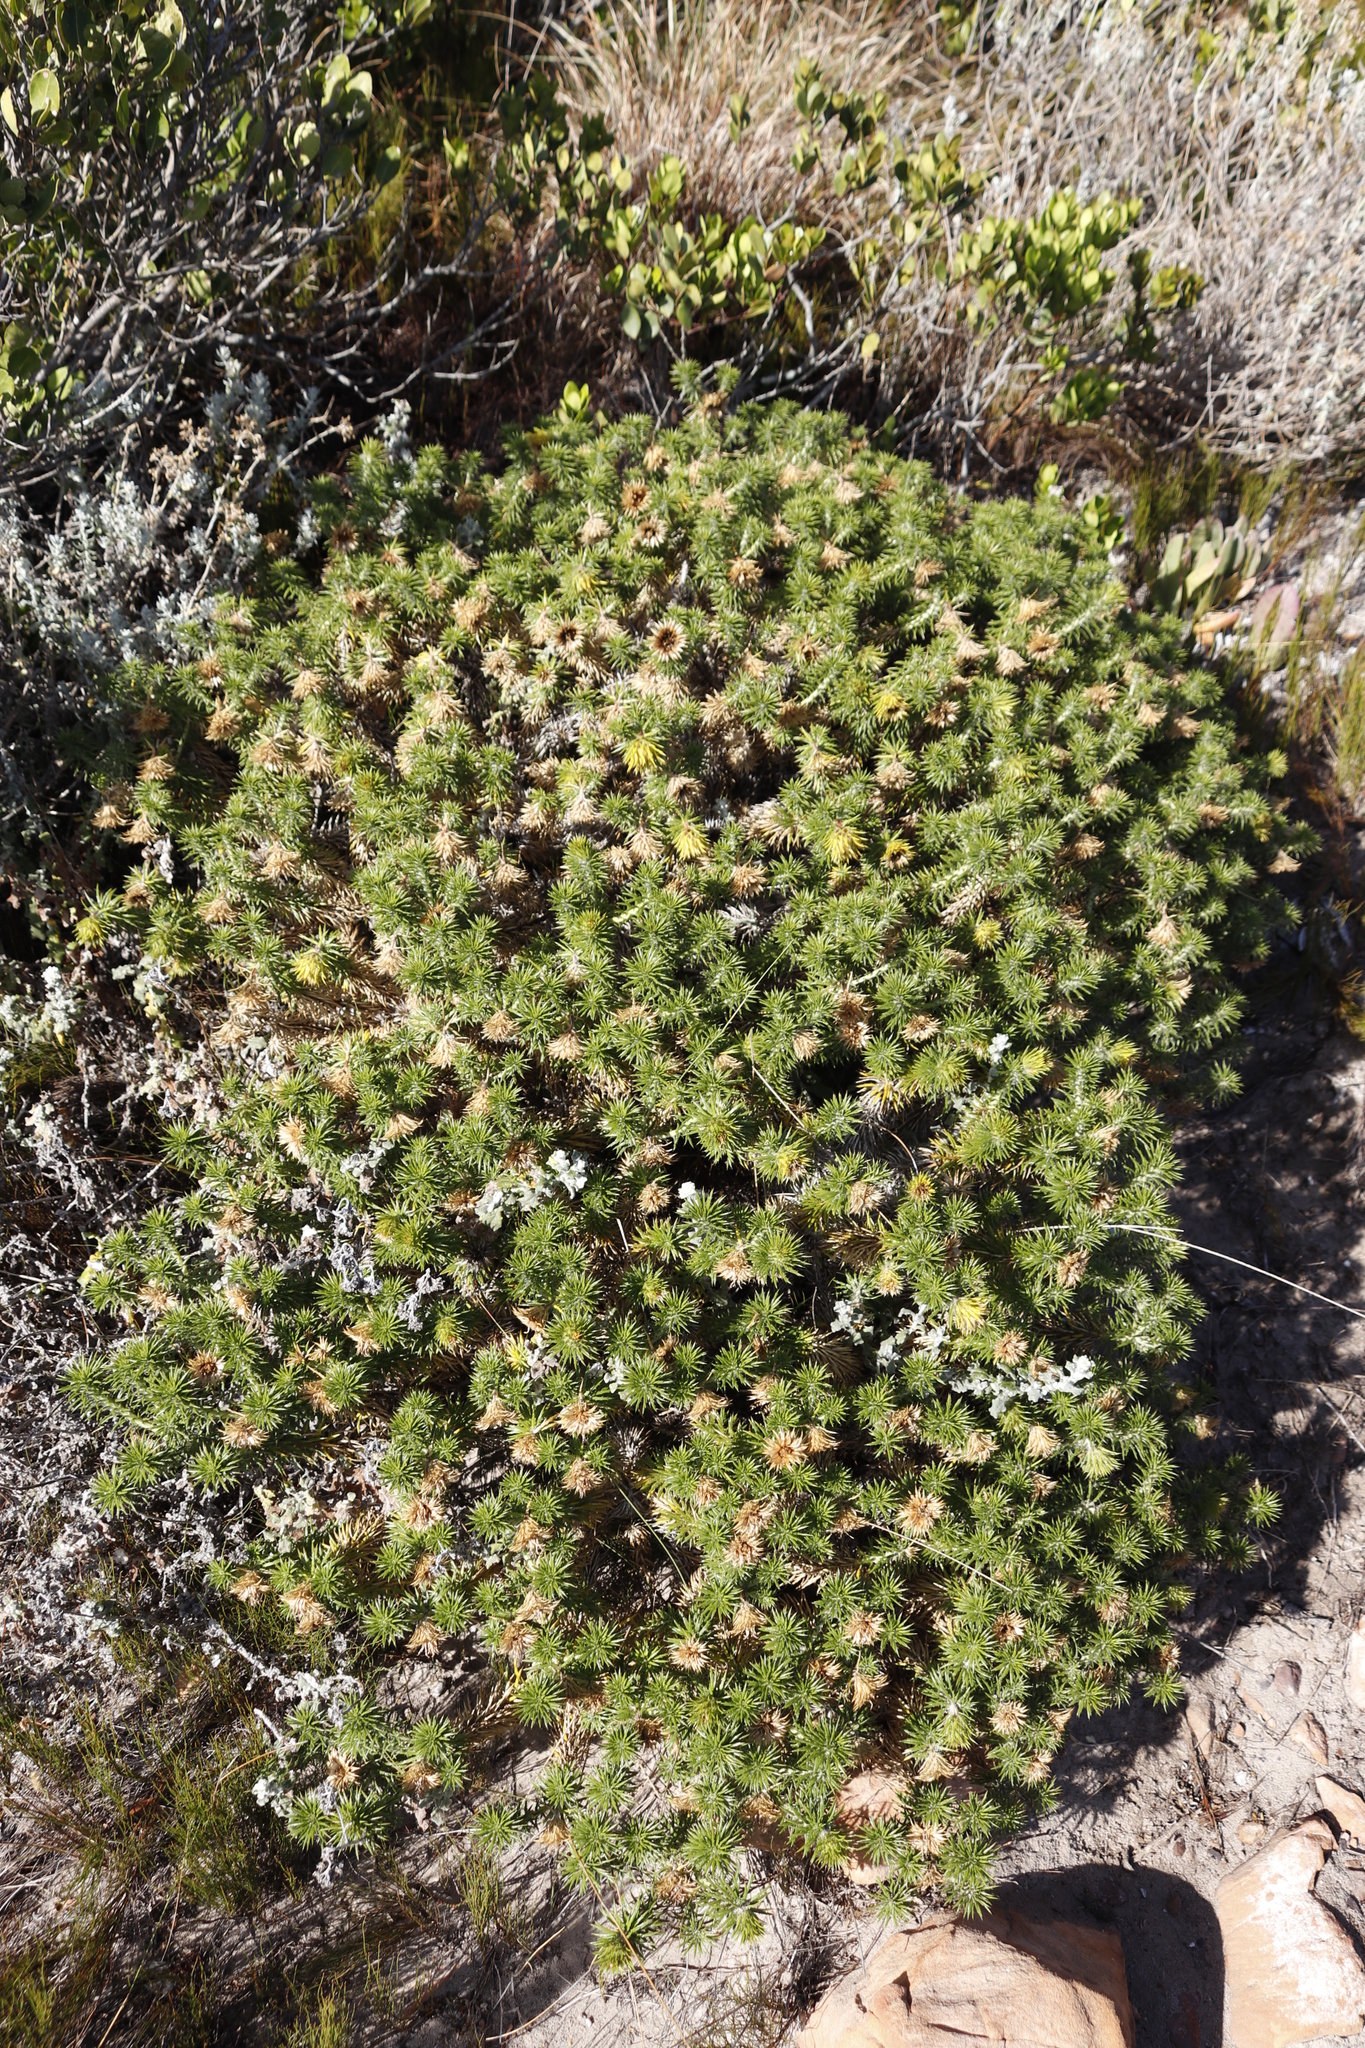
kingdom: Plantae
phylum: Tracheophyta
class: Magnoliopsida
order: Asterales
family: Asteraceae
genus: Cullumia
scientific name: Cullumia squarrosa
